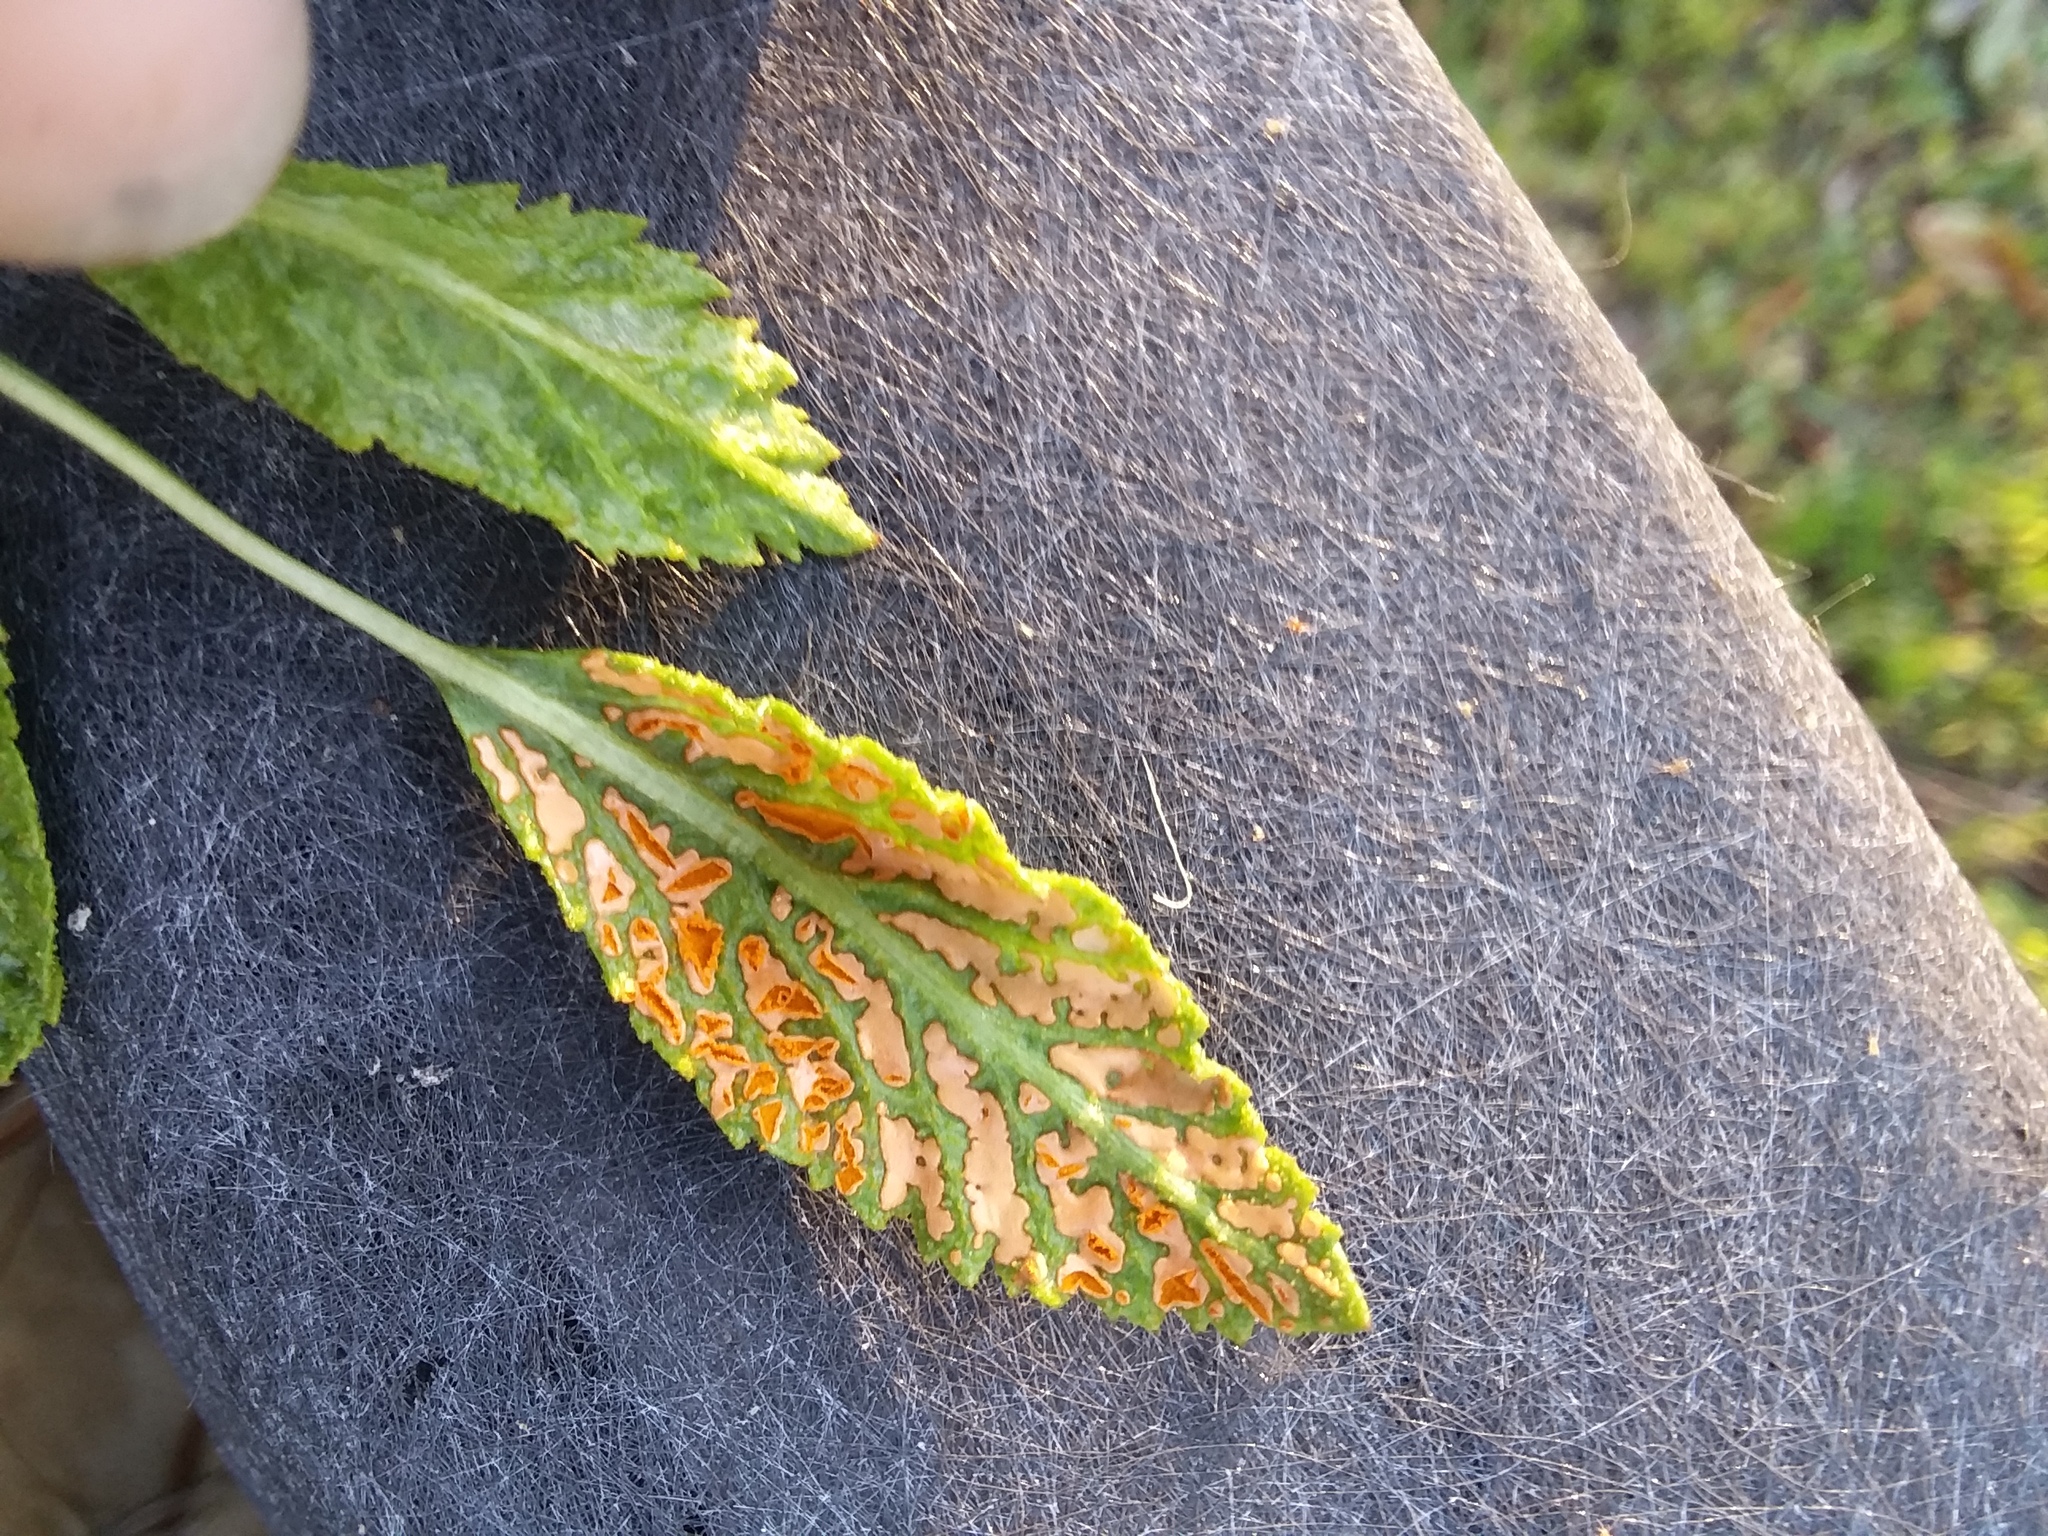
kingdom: Fungi
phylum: Basidiomycota
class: Pucciniomycetes
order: Pucciniales
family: Phragmidiaceae
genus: Arthuriomyces
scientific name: Arthuriomyces peckianus
